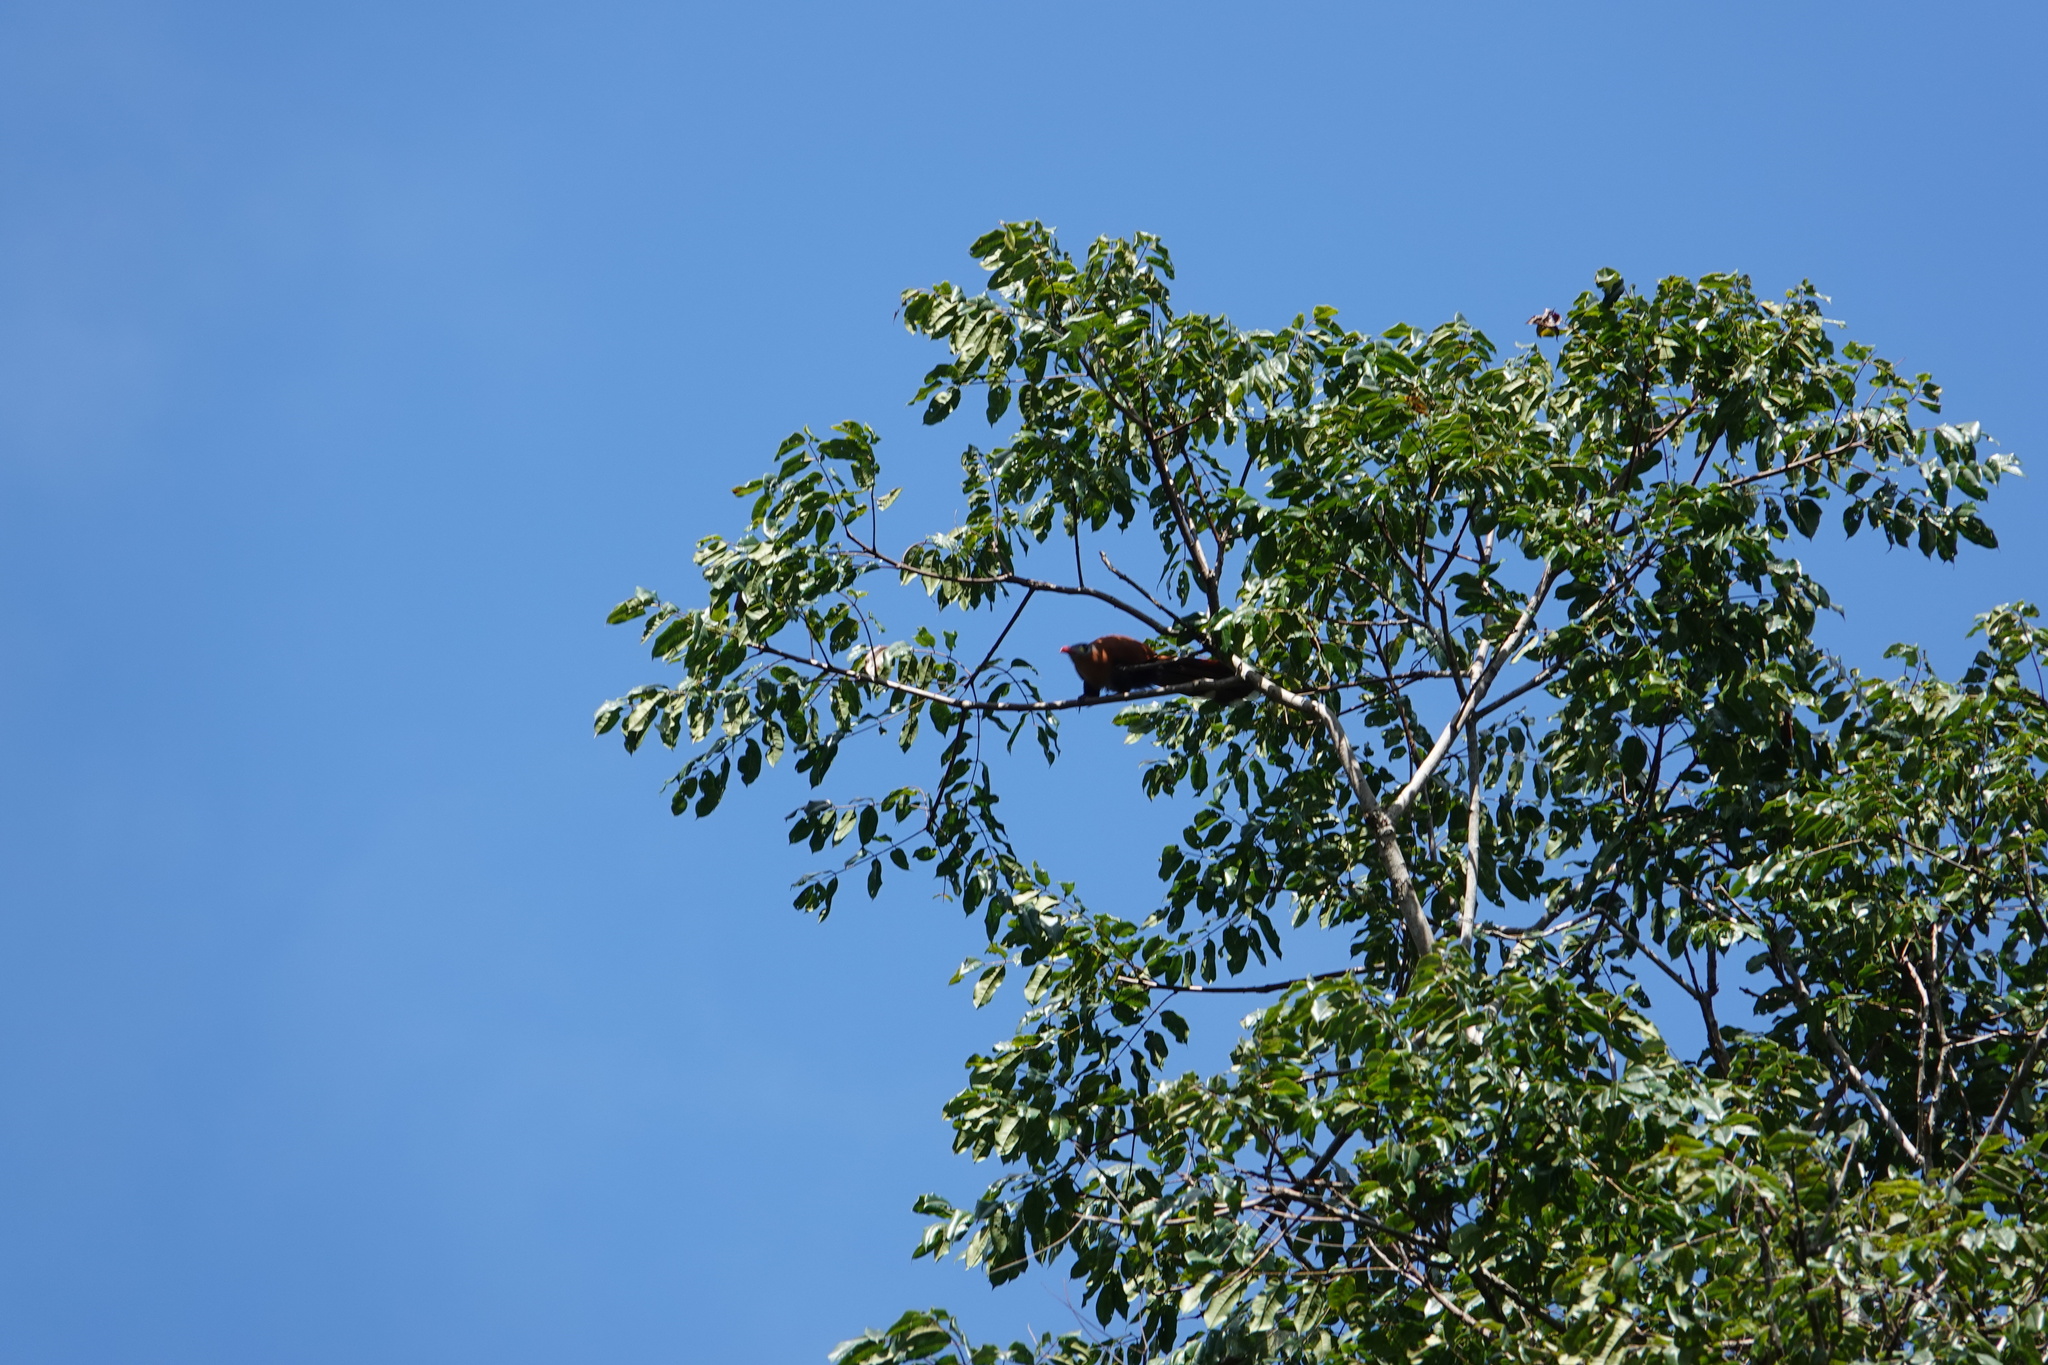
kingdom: Animalia
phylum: Chordata
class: Aves
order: Cuculiformes
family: Cuculidae
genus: Piaya
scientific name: Piaya melanogaster
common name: Black-bellied cuckoo
